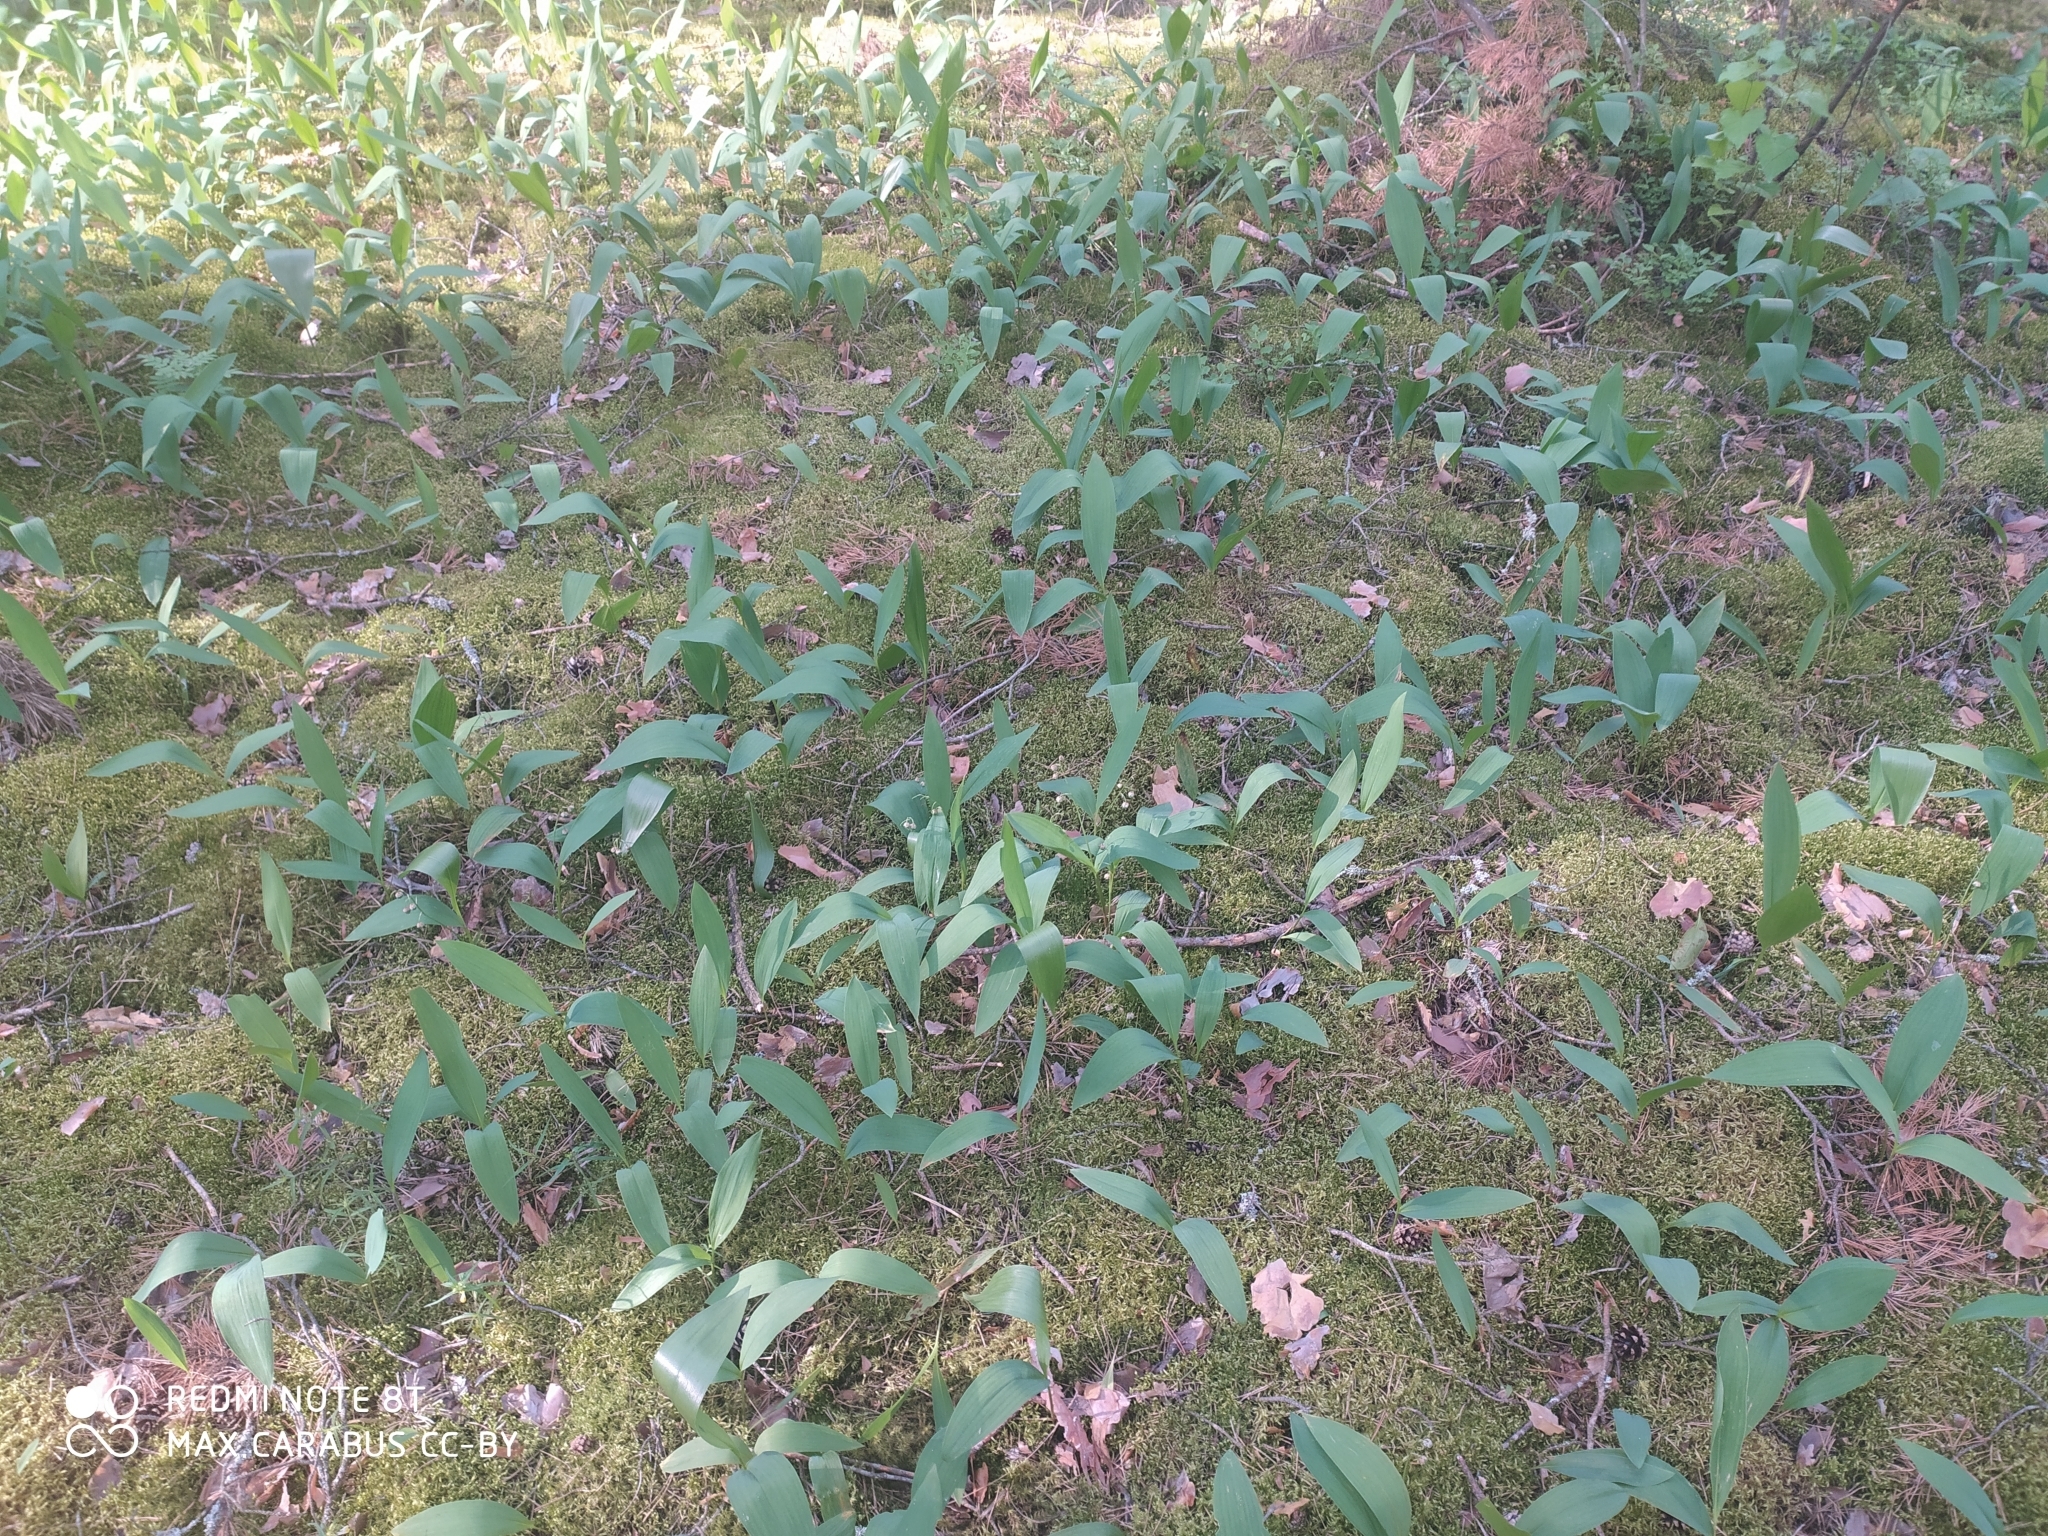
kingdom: Plantae
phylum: Tracheophyta
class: Liliopsida
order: Asparagales
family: Asparagaceae
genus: Convallaria
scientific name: Convallaria majalis
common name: Lily-of-the-valley
